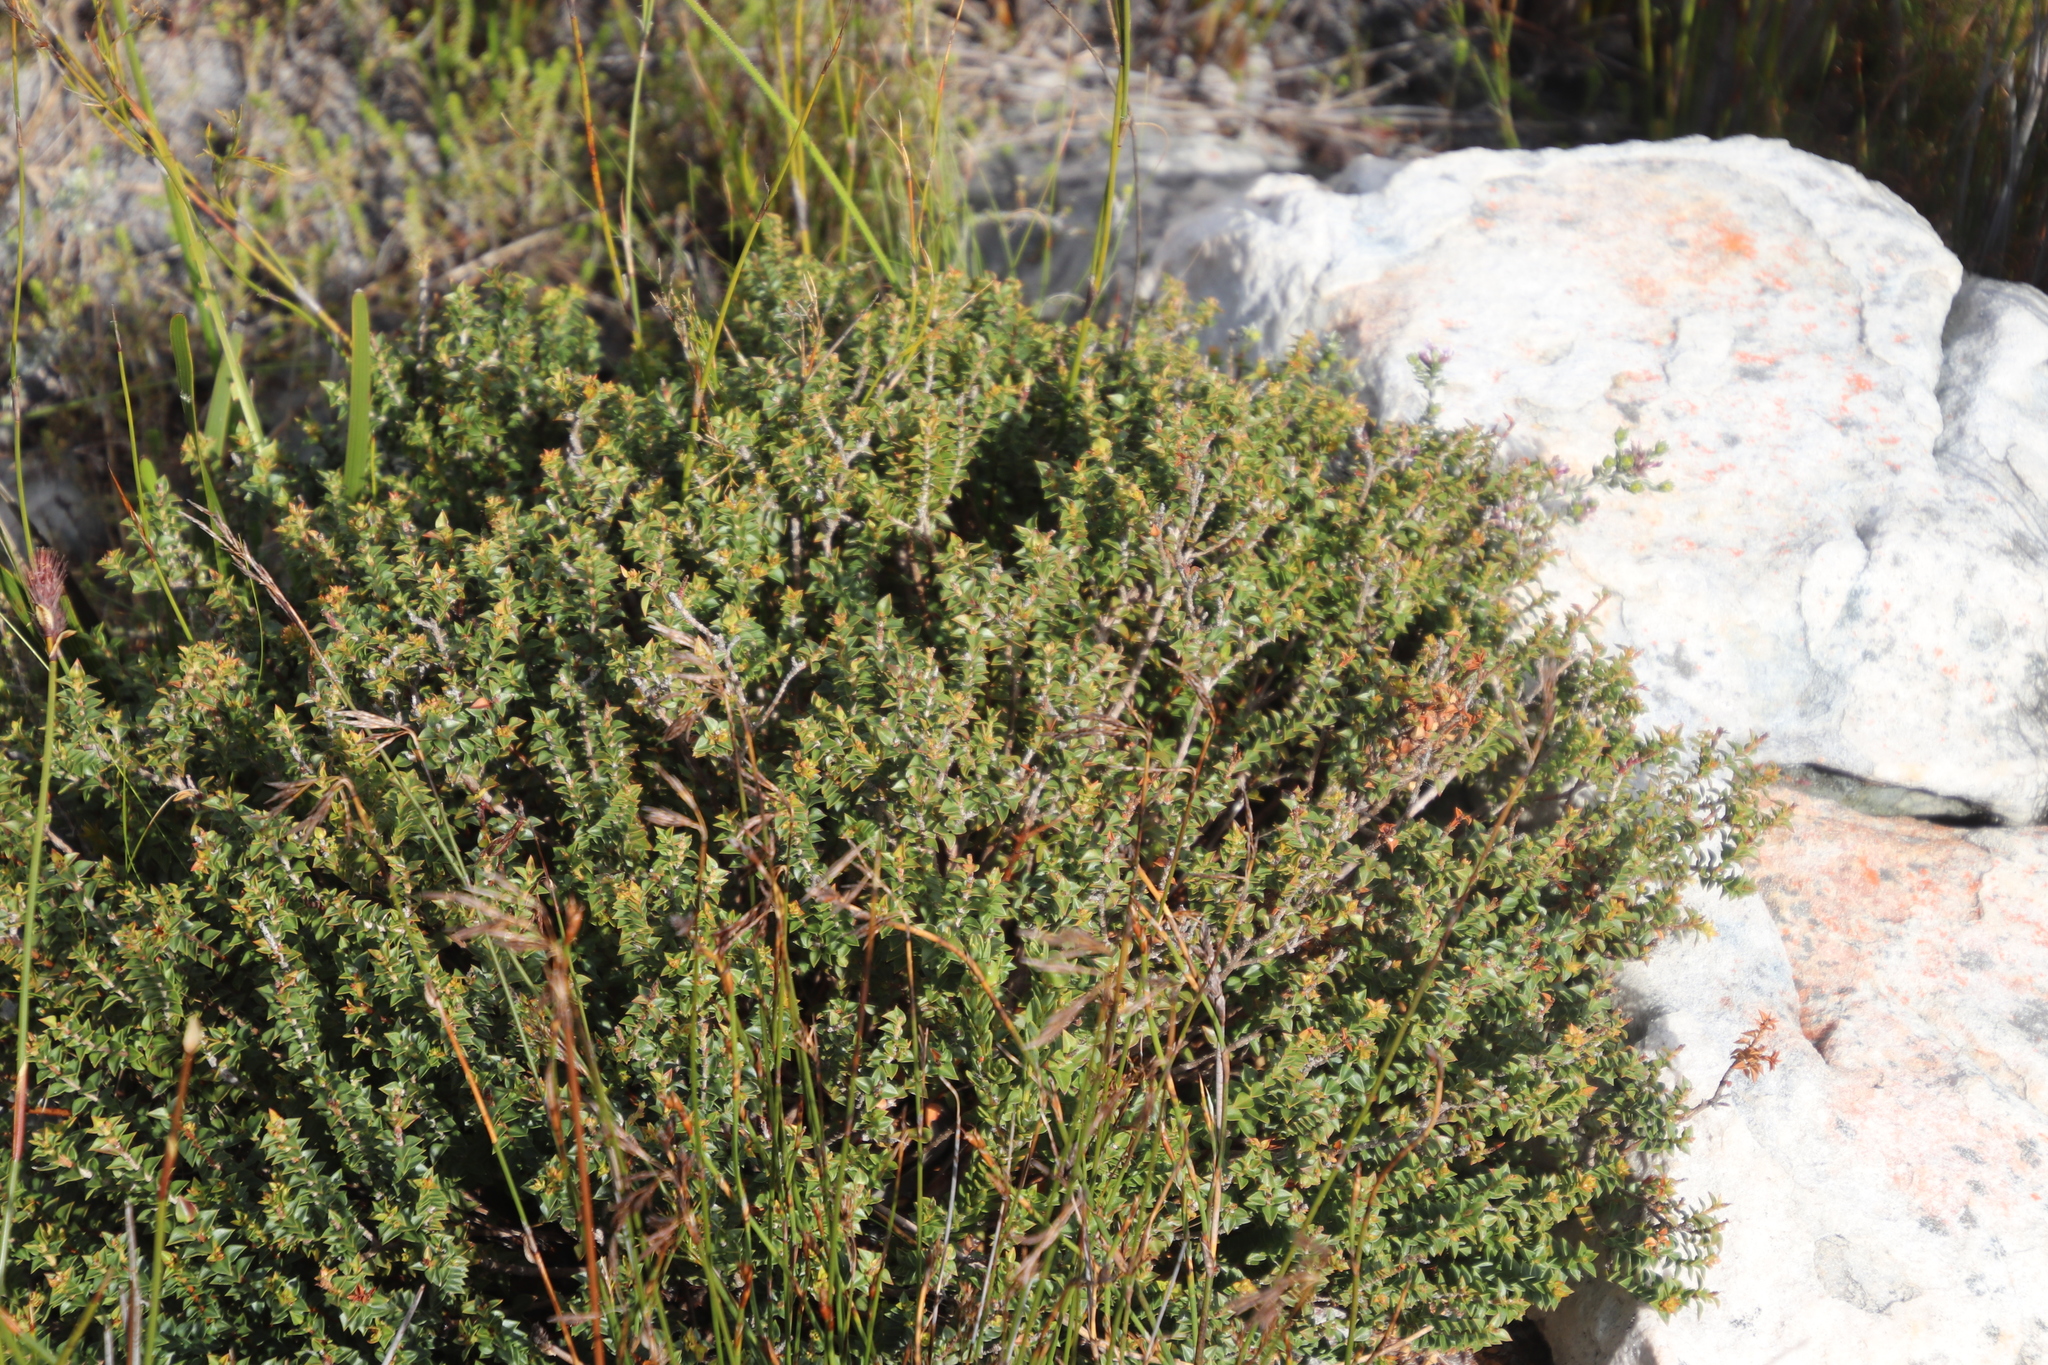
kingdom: Plantae
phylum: Tracheophyta
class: Magnoliopsida
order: Myrtales
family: Penaeaceae
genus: Penaea
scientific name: Penaea mucronata
